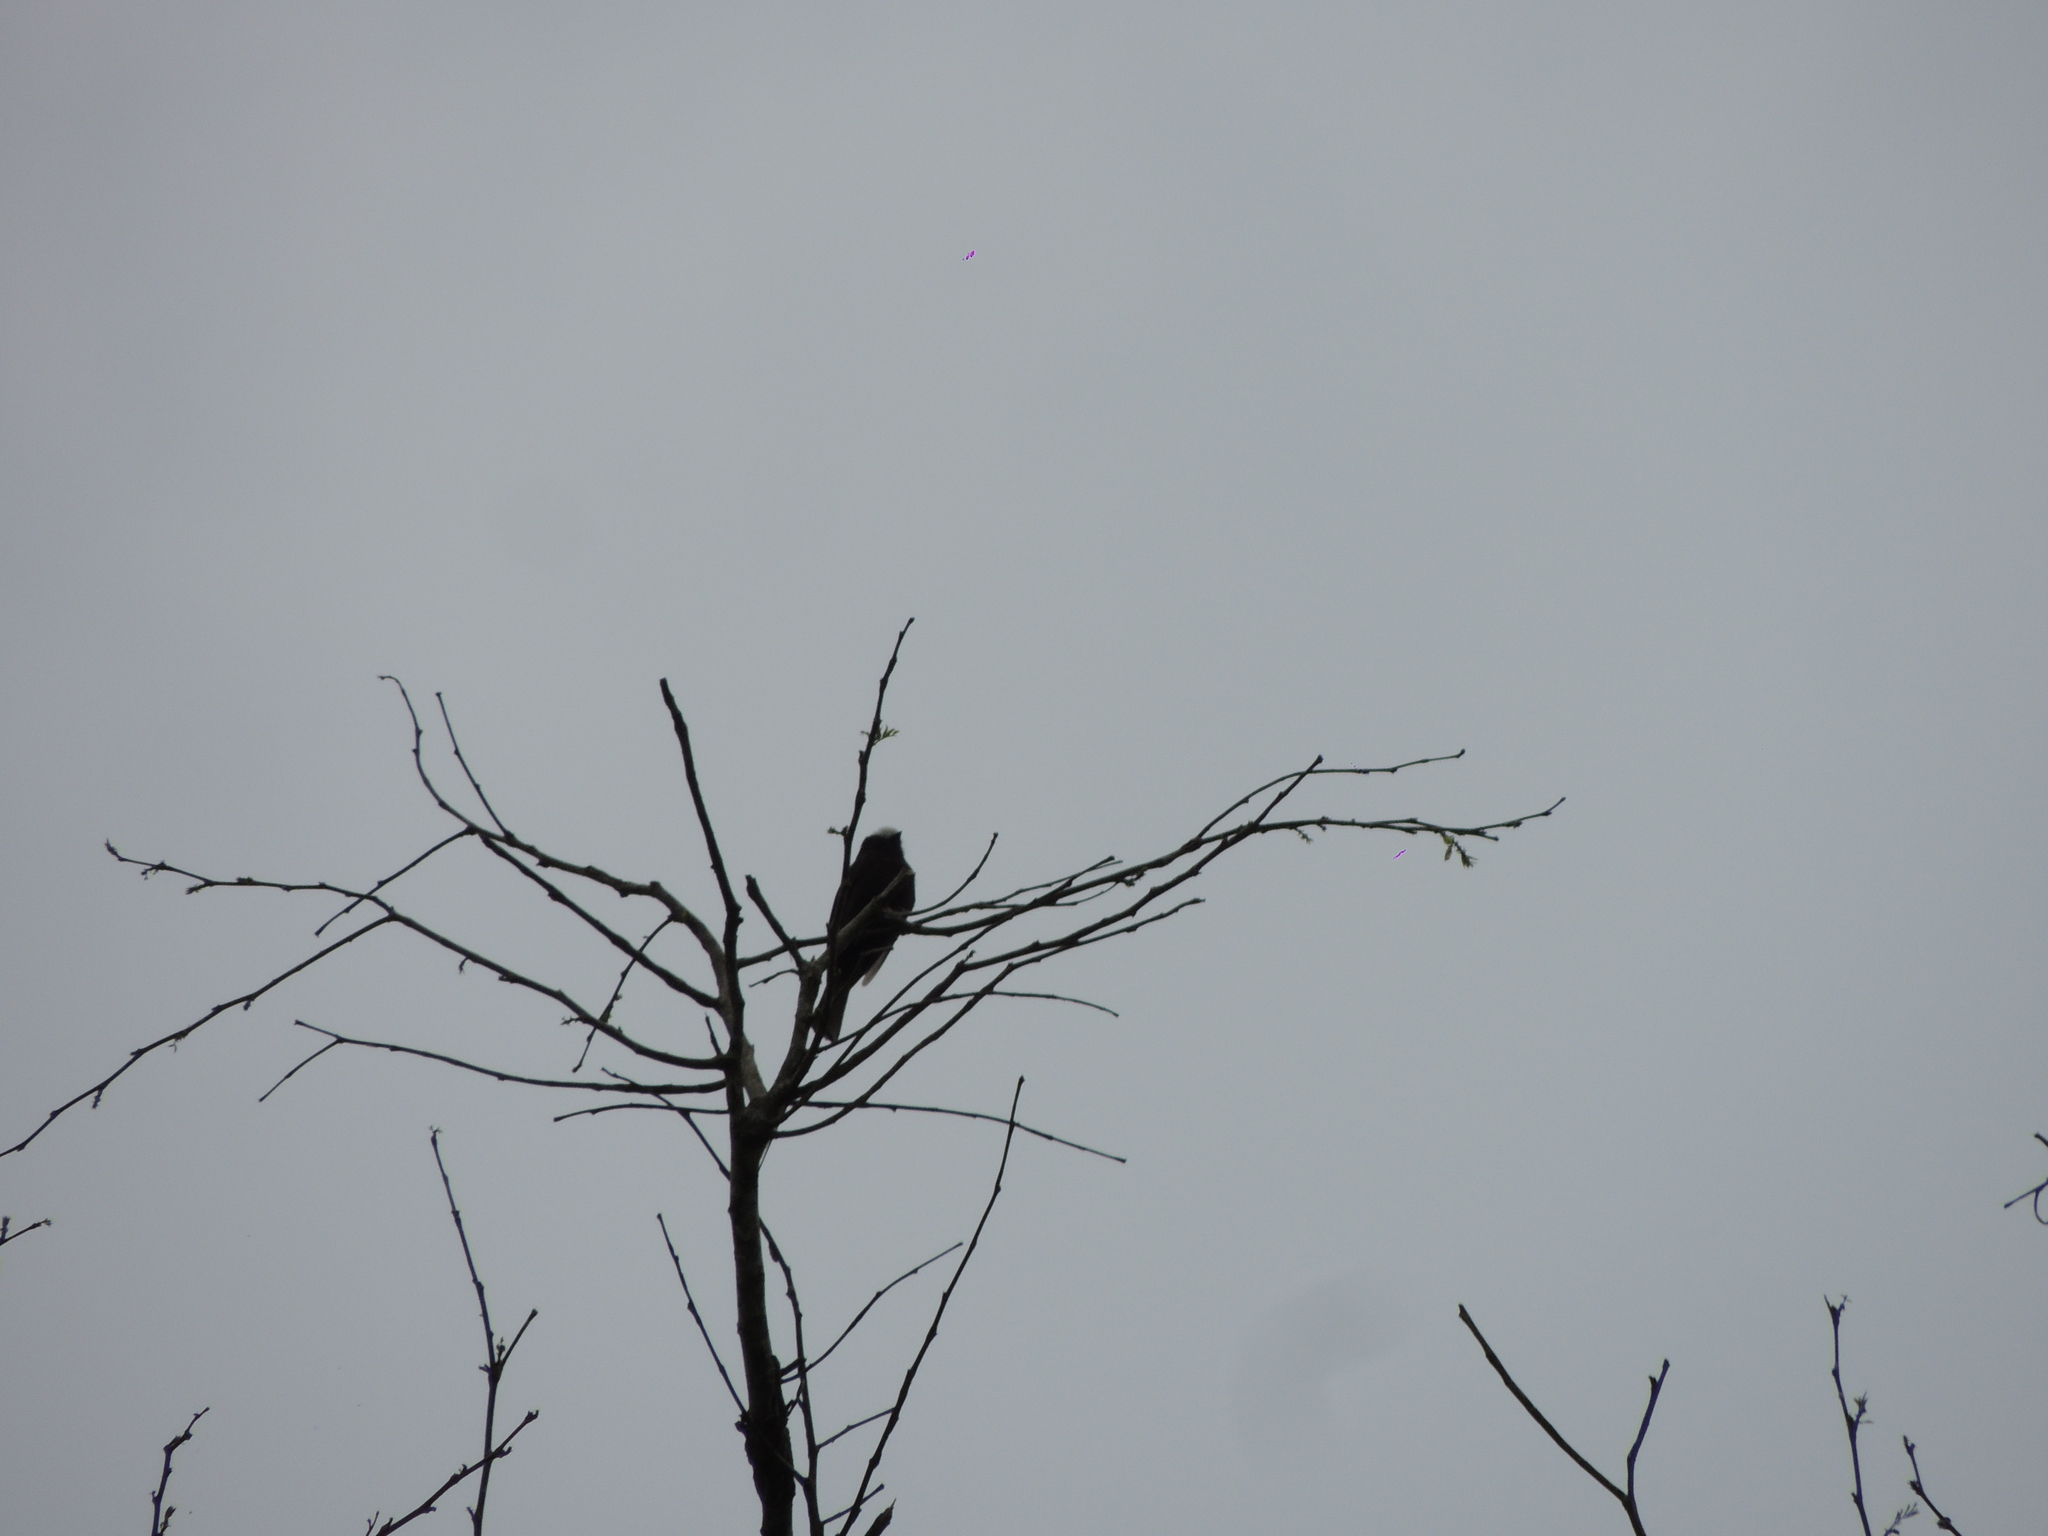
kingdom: Animalia
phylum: Chordata
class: Aves
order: Passeriformes
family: Tyrannidae
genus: Colonia
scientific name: Colonia colonus
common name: Long-tailed tyrant
